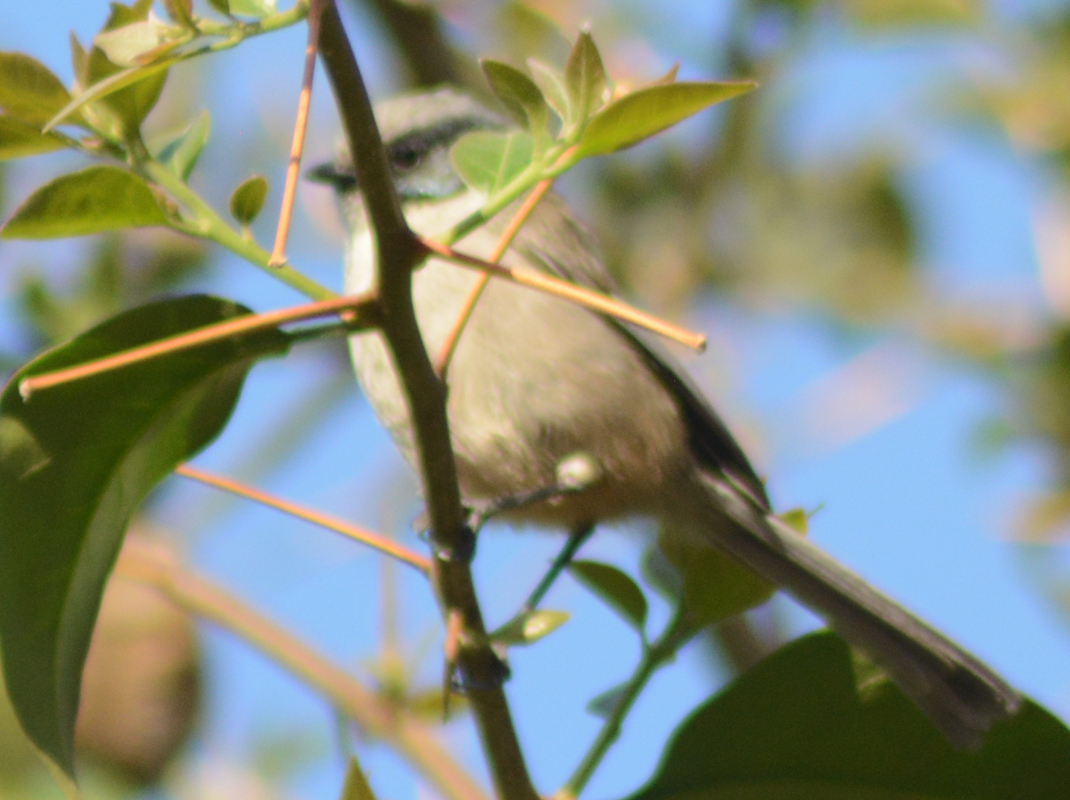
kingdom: Animalia
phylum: Chordata
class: Aves
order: Passeriformes
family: Aegithalidae
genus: Psaltriparus
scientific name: Psaltriparus minimus
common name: American bushtit
